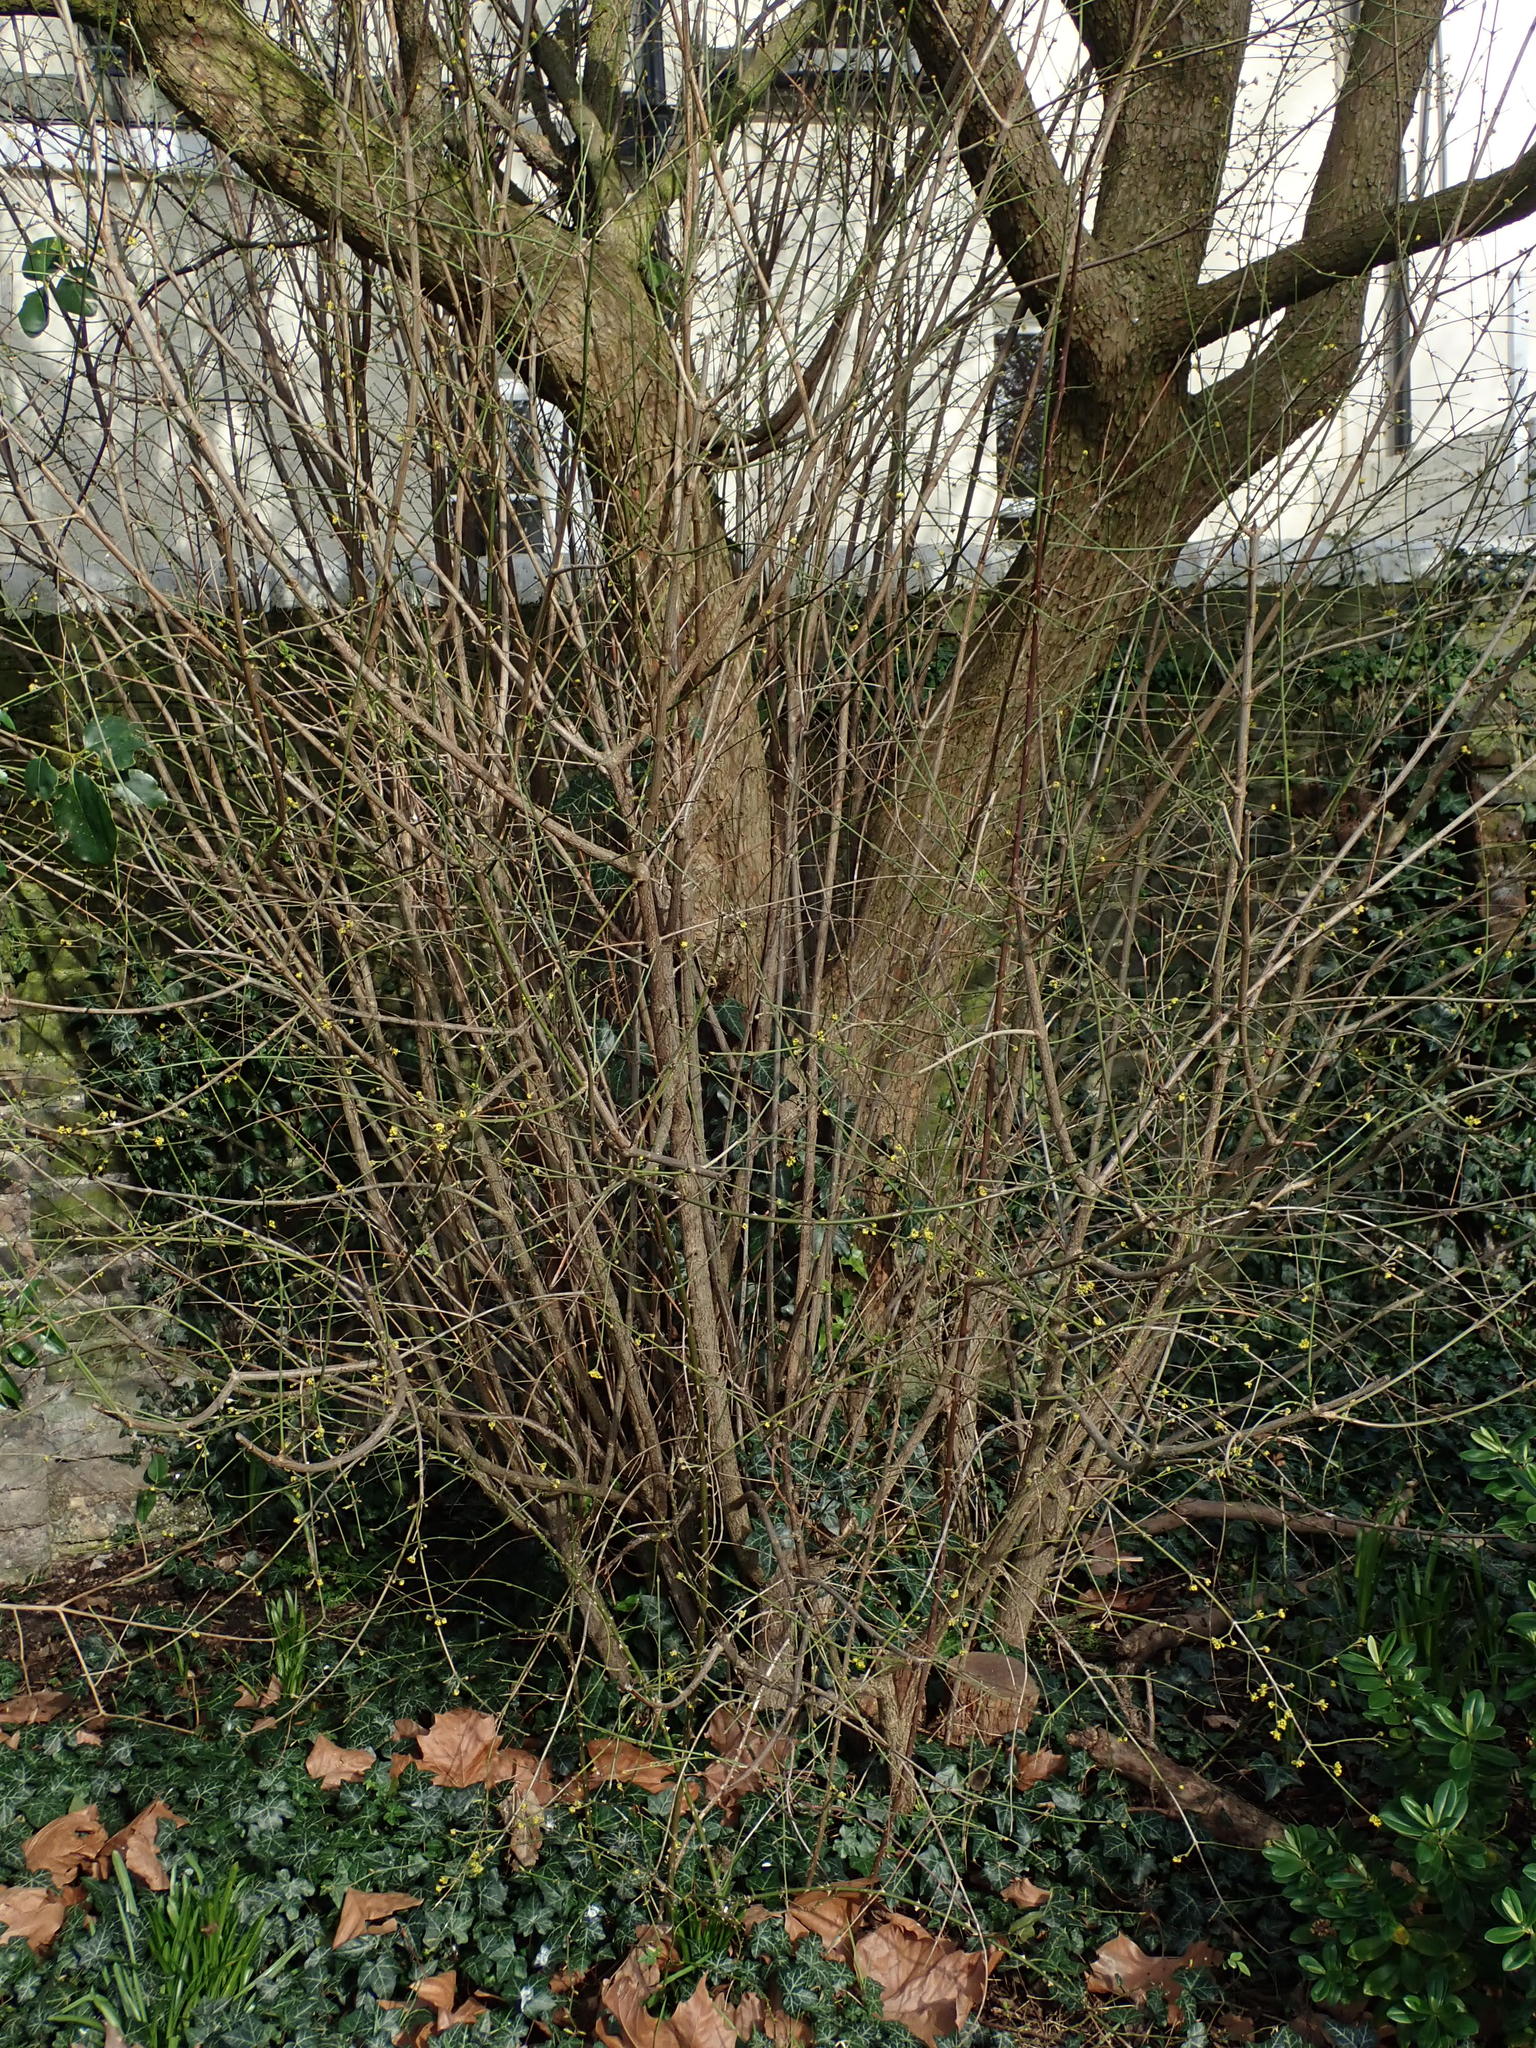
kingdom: Plantae
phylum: Tracheophyta
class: Magnoliopsida
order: Cornales
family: Cornaceae
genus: Cornus
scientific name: Cornus mas
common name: Cornelian-cherry
